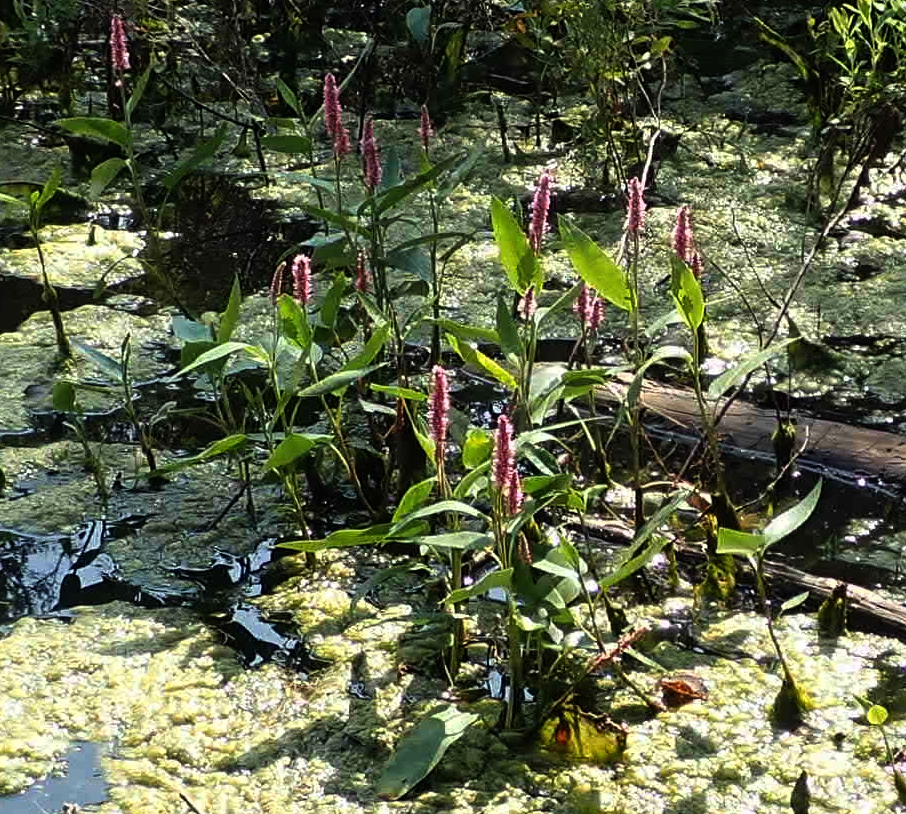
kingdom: Plantae
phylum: Tracheophyta
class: Magnoliopsida
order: Caryophyllales
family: Polygonaceae
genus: Persicaria
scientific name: Persicaria amphibia
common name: Amphibious bistort
